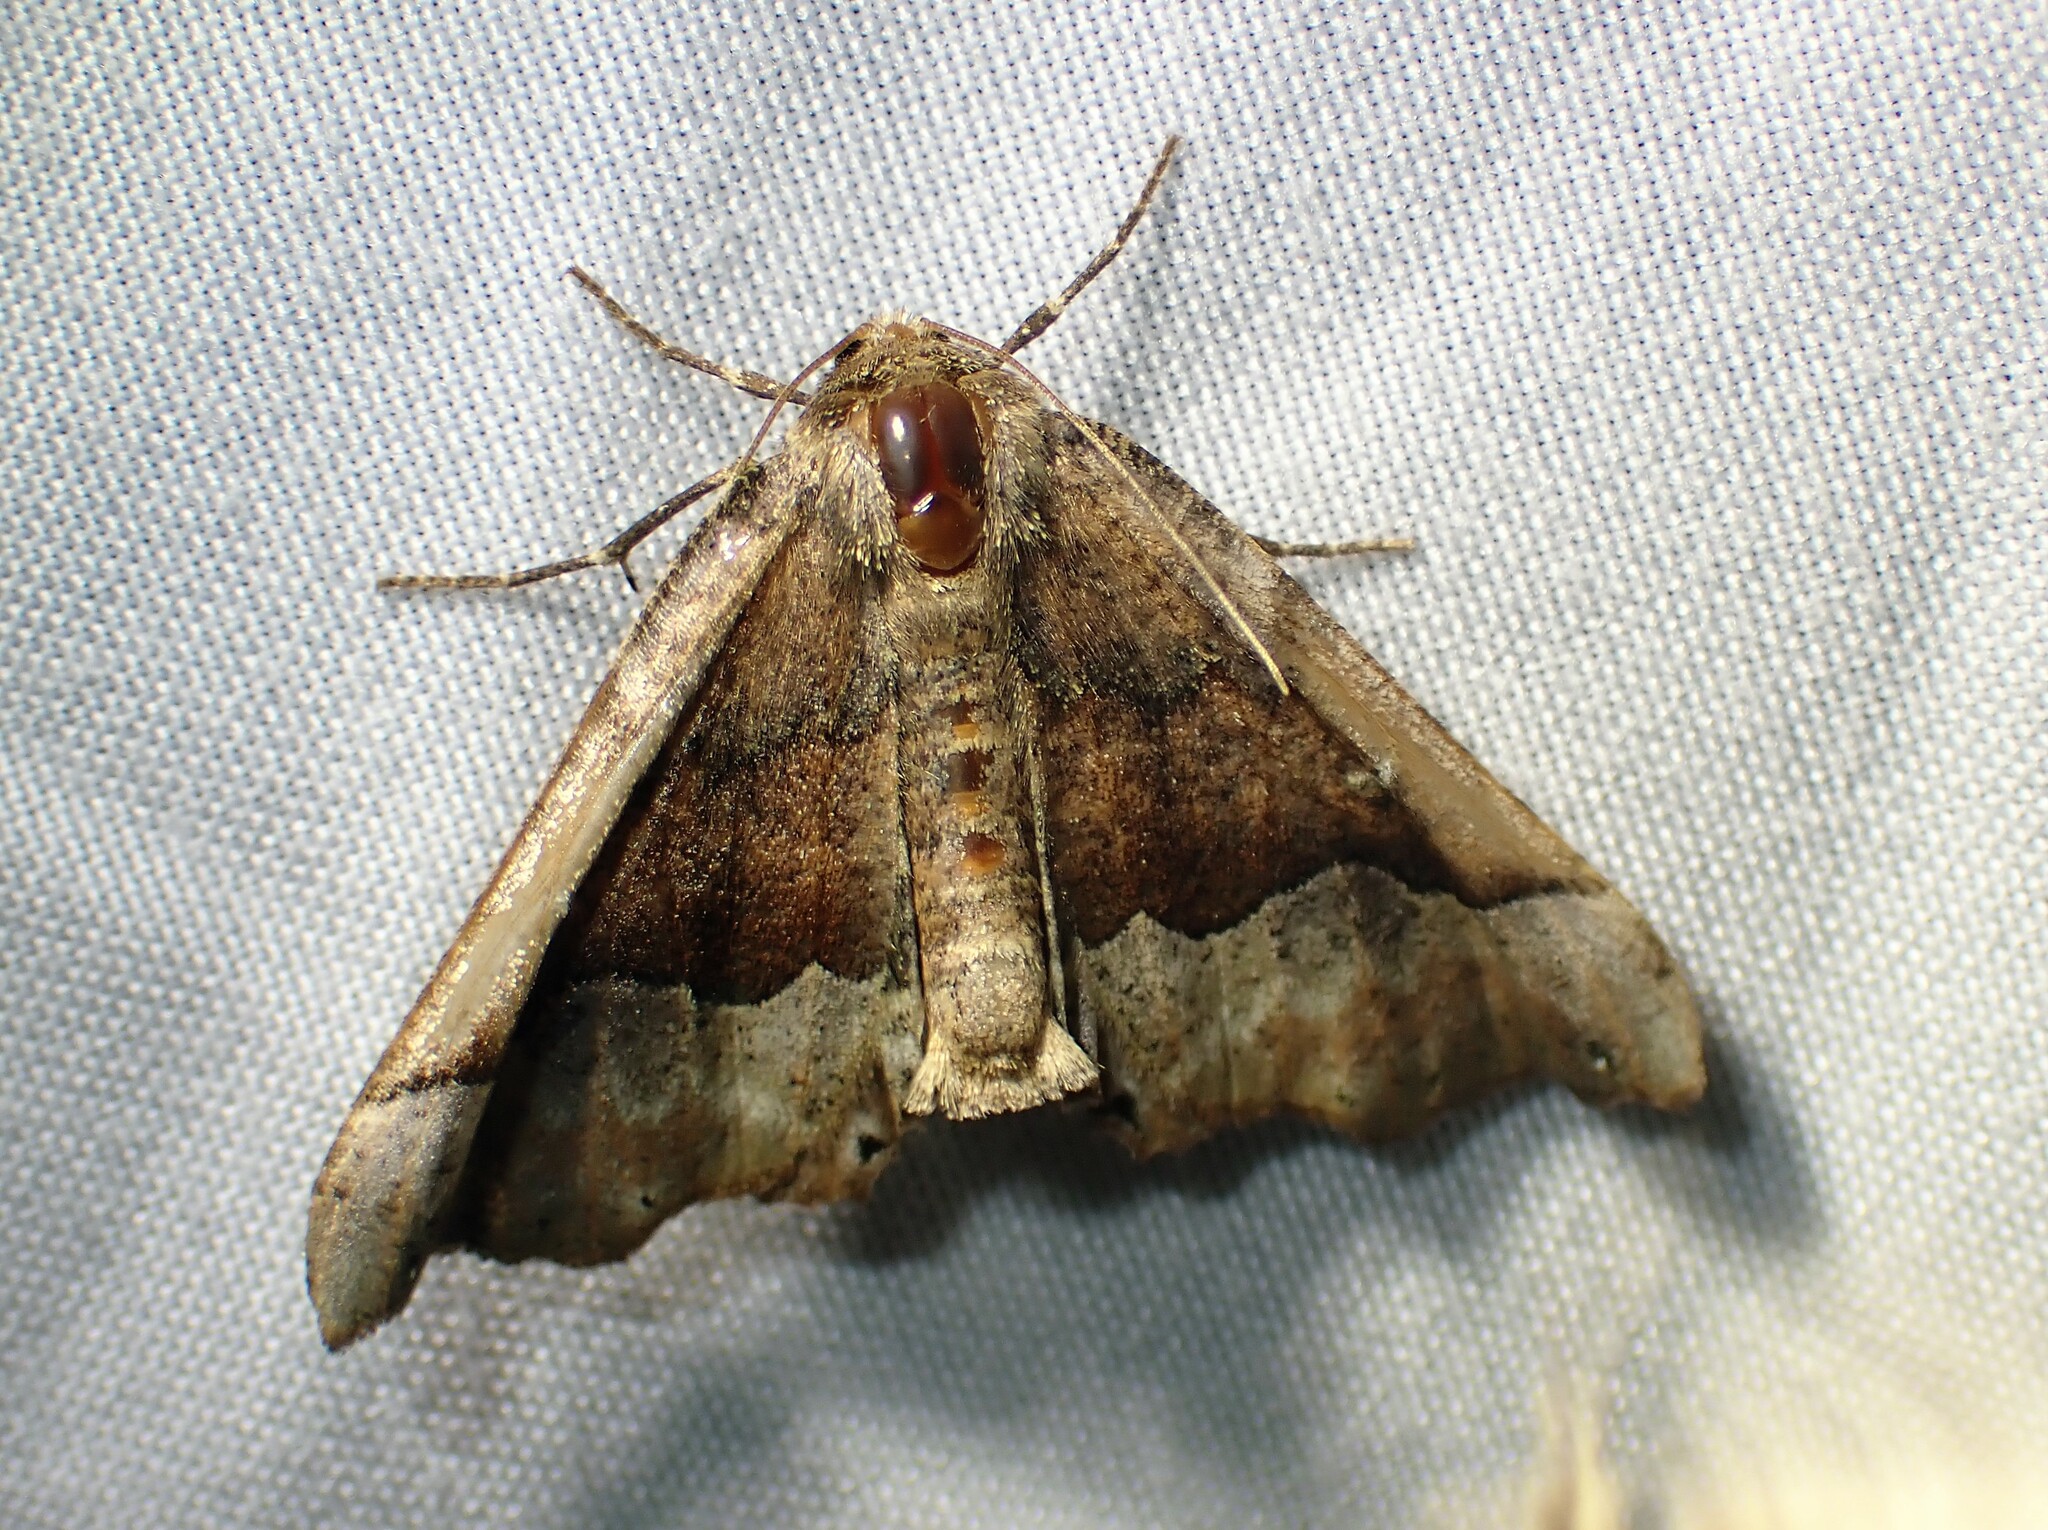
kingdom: Animalia
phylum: Arthropoda
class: Insecta
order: Lepidoptera
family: Geometridae
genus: Pero
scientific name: Pero morrisonaria
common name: Morrison's pero
